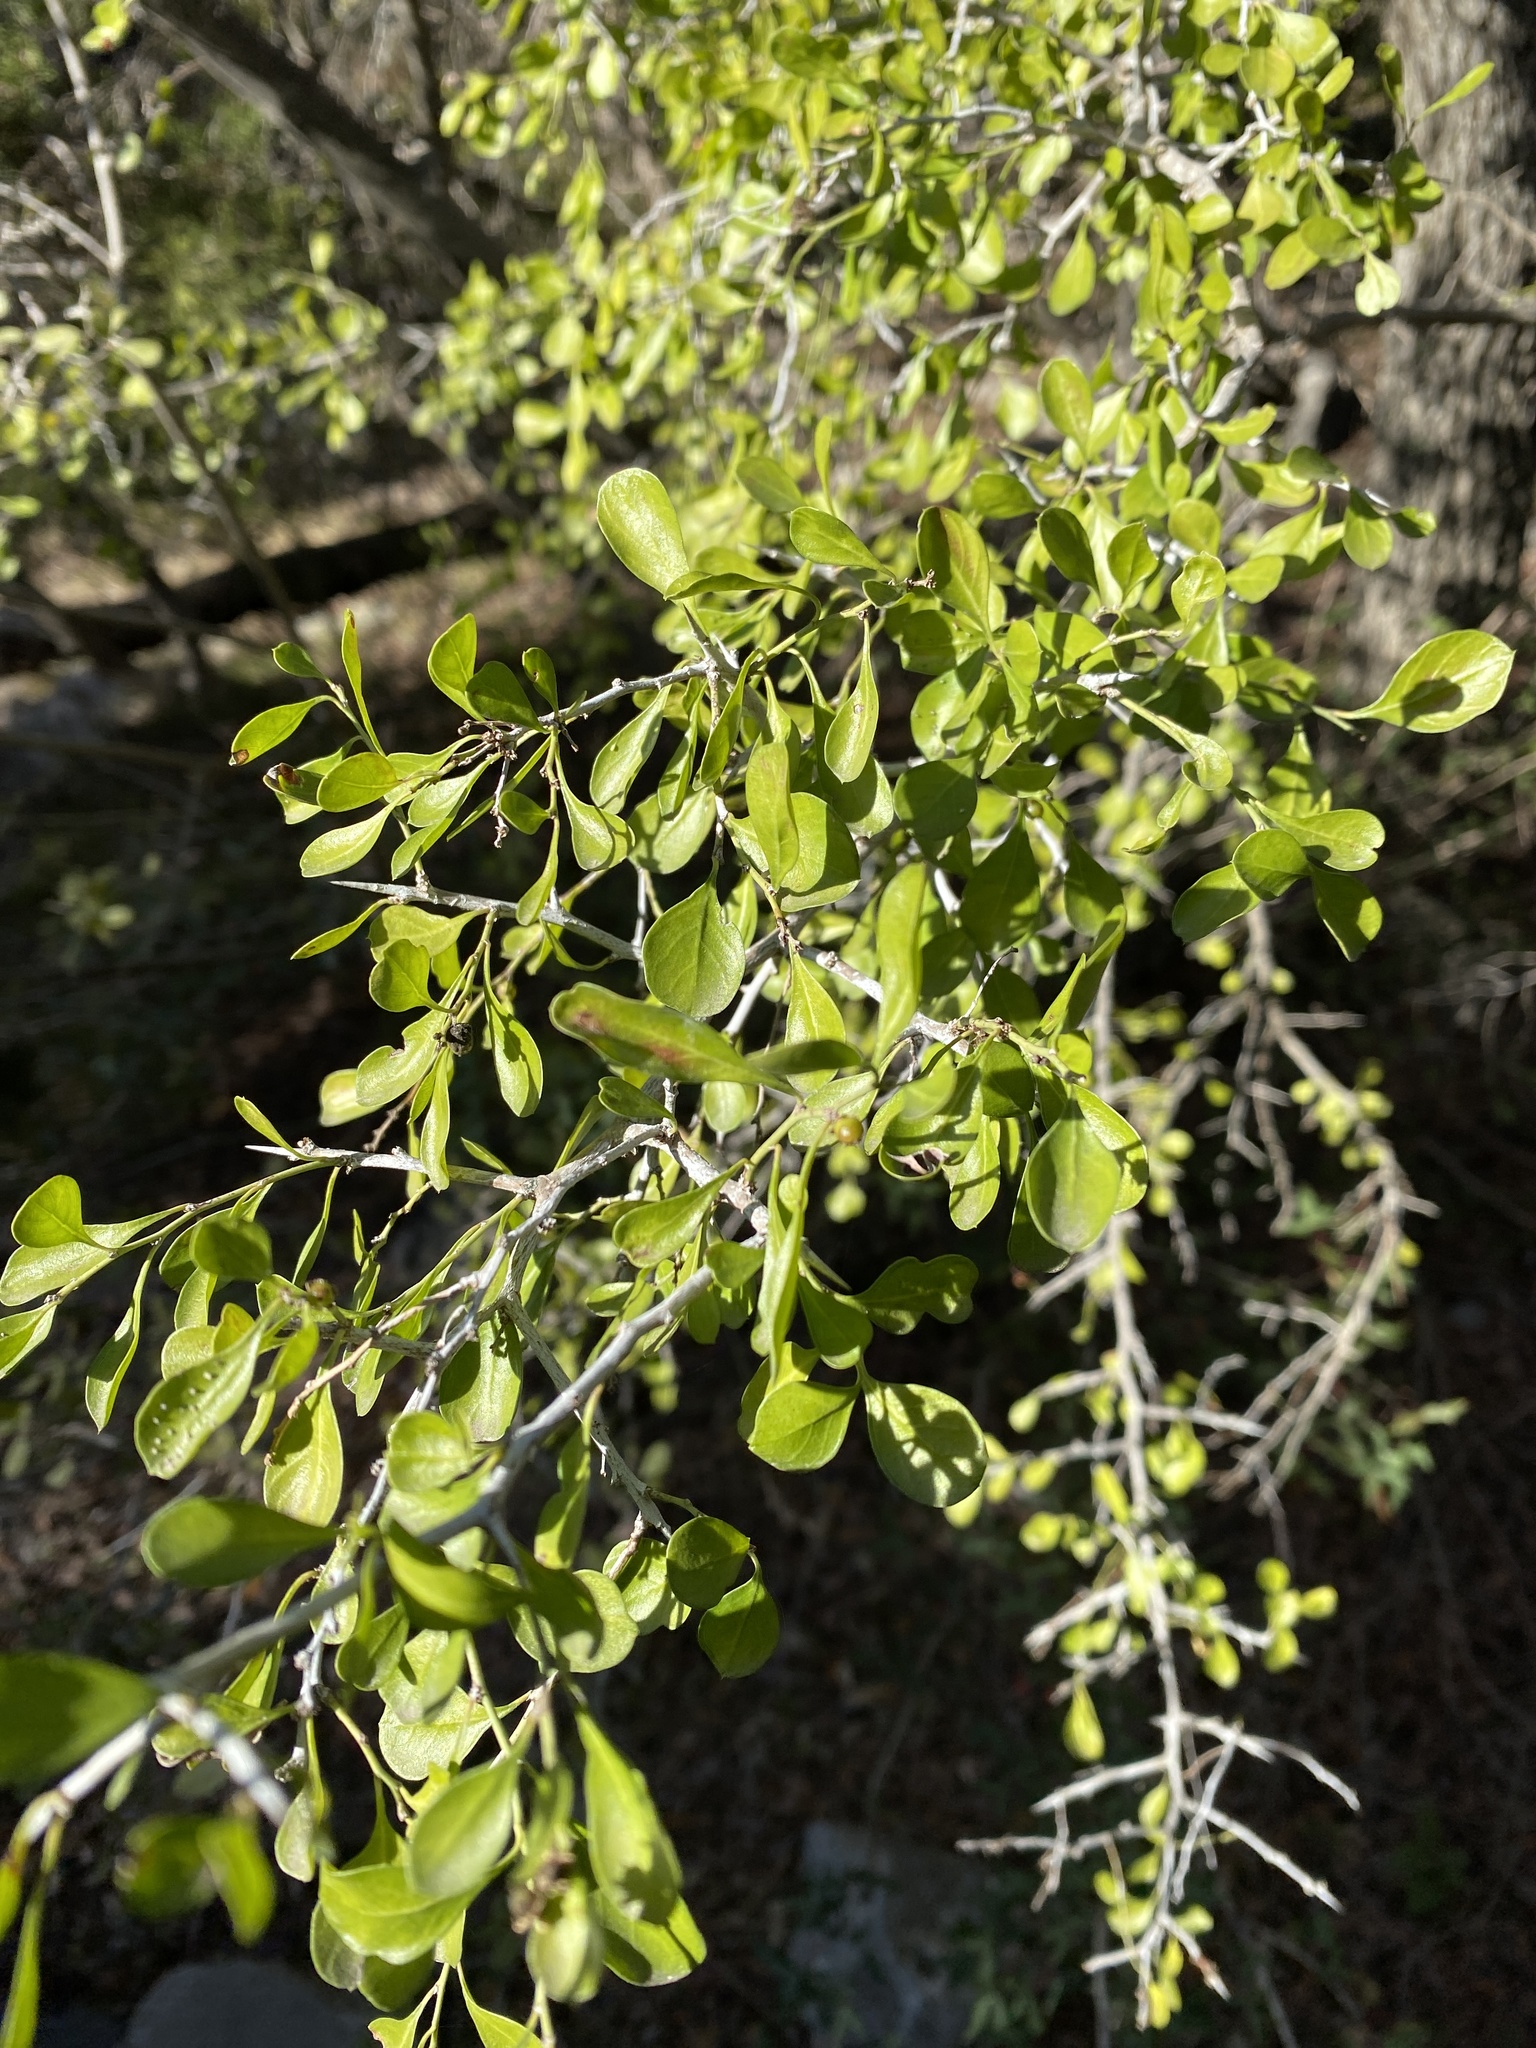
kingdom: Plantae
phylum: Tracheophyta
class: Magnoliopsida
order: Rosales
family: Rhamnaceae
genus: Condalia
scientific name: Condalia hookeri
